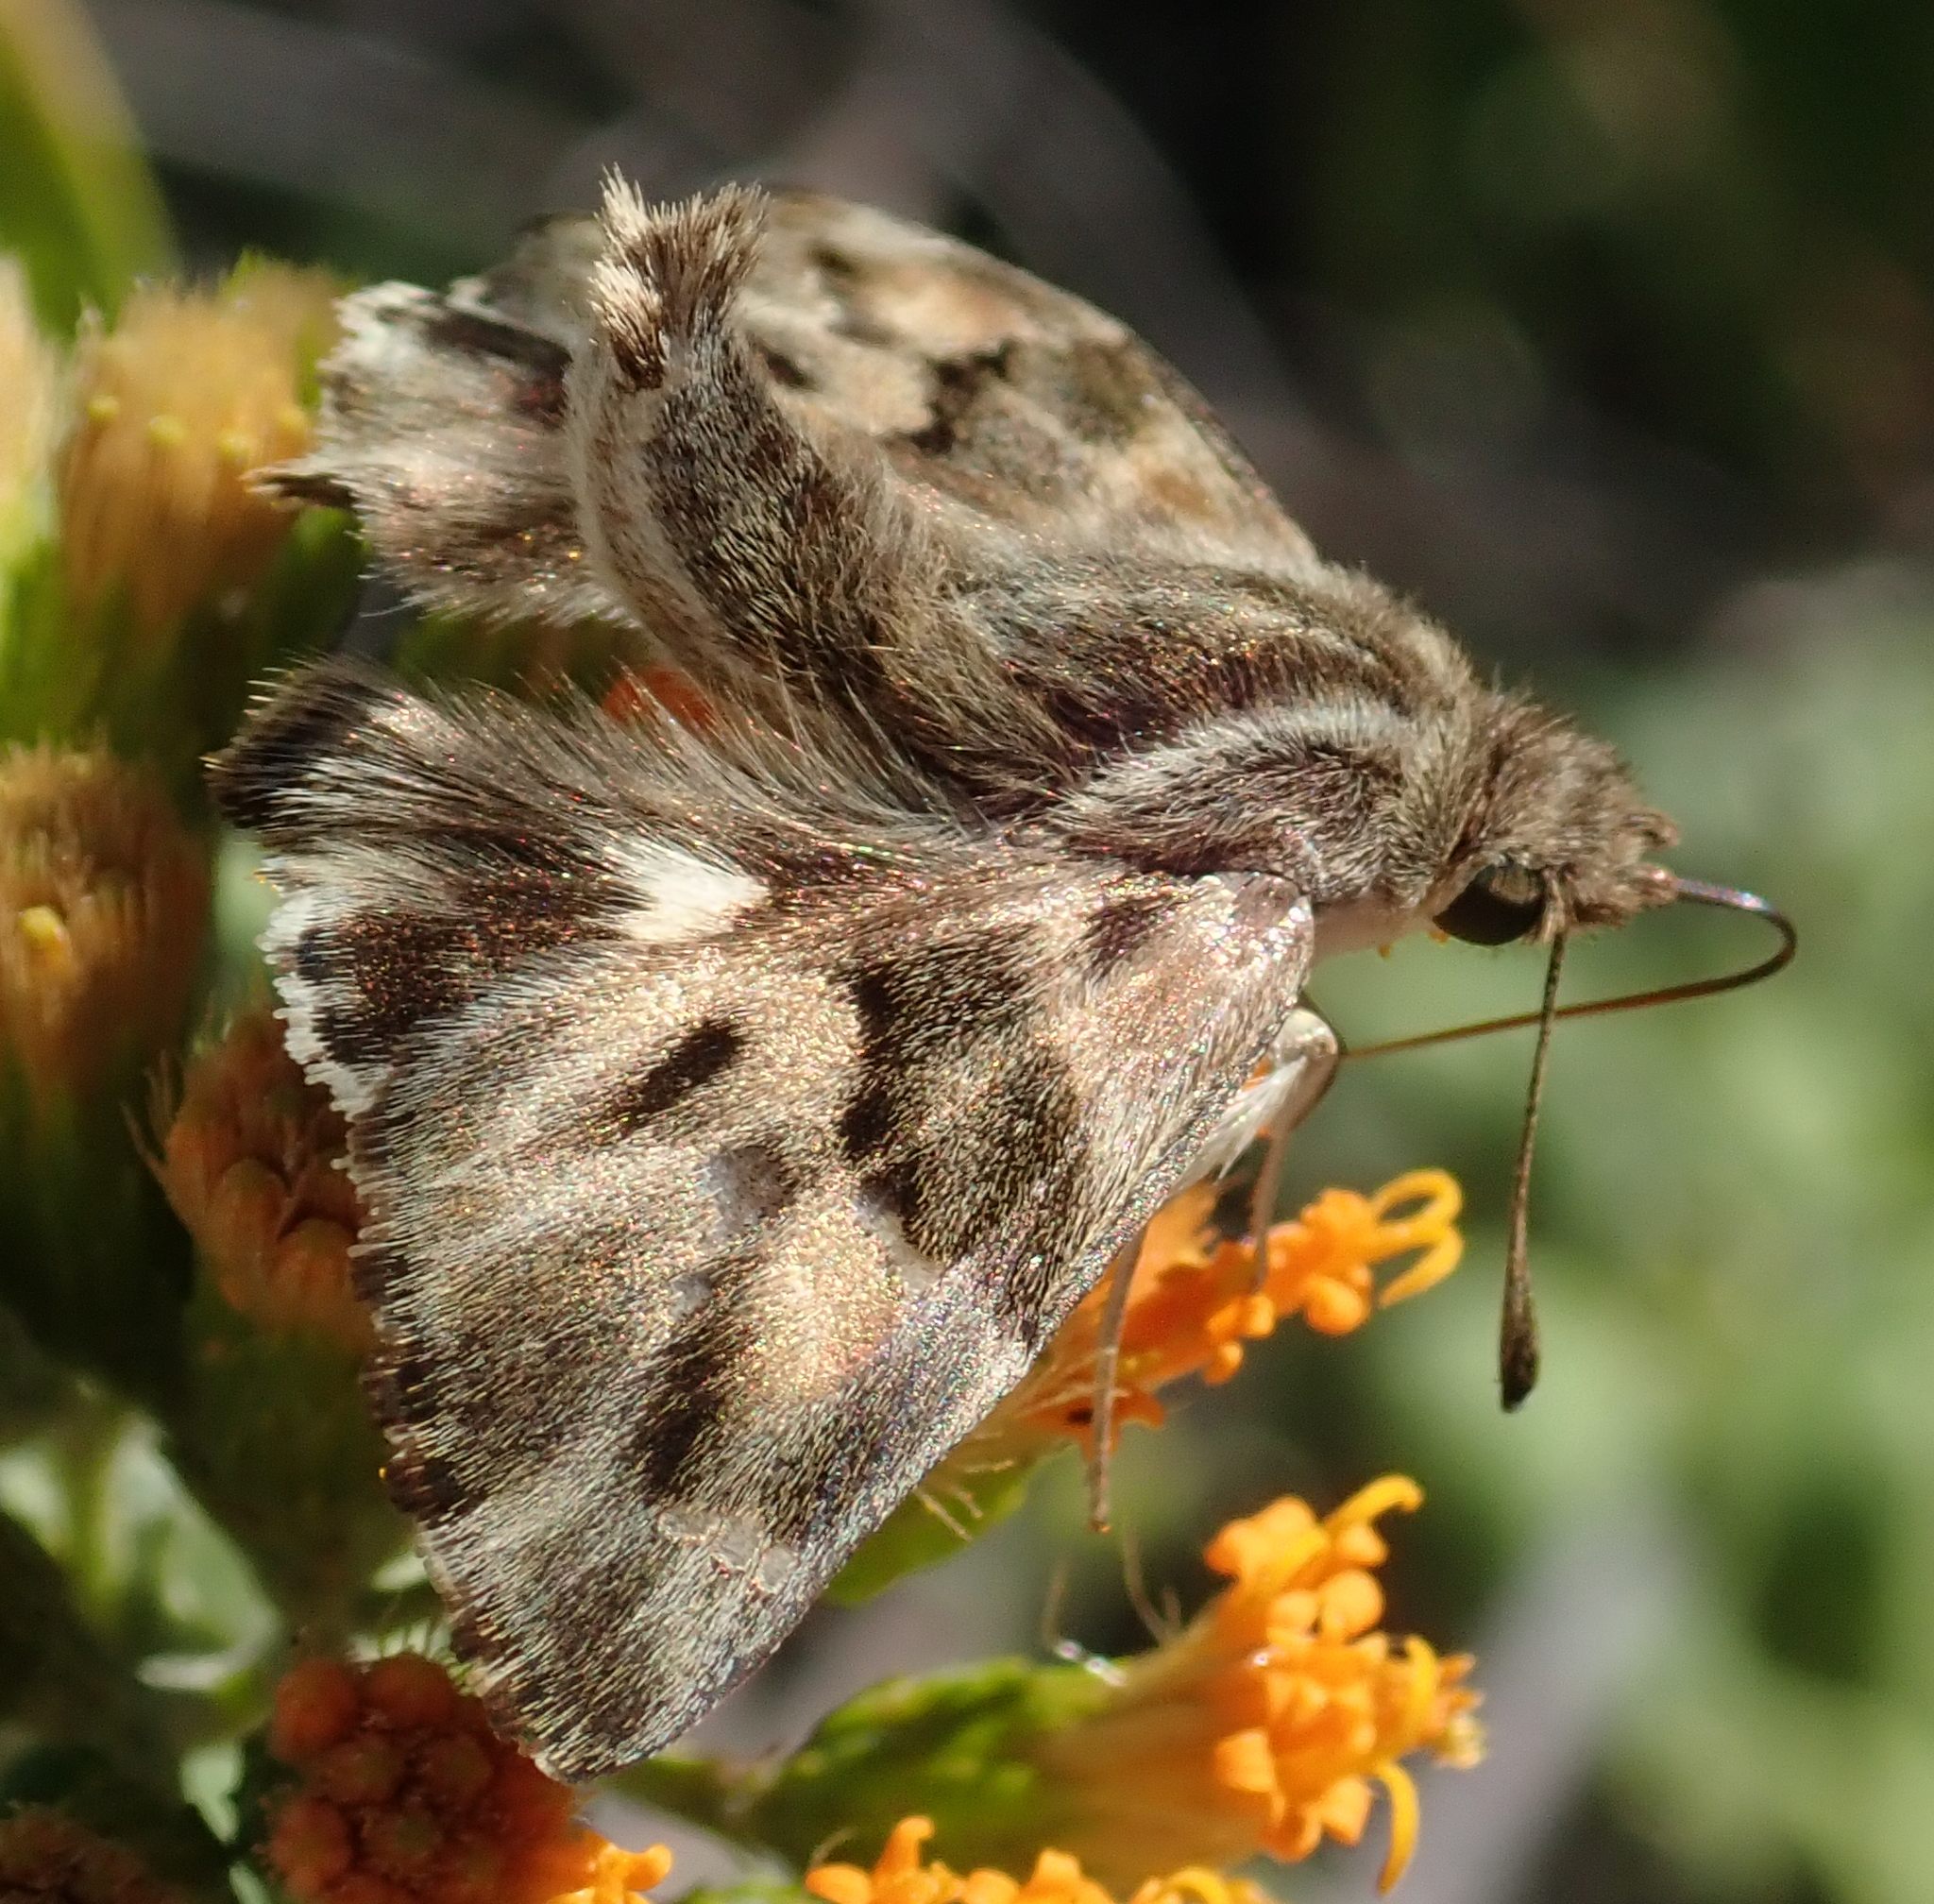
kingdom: Animalia
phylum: Arthropoda
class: Insecta
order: Lepidoptera
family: Hesperiidae
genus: Gomalia
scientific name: Gomalia elma
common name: Green-marbled skipper
